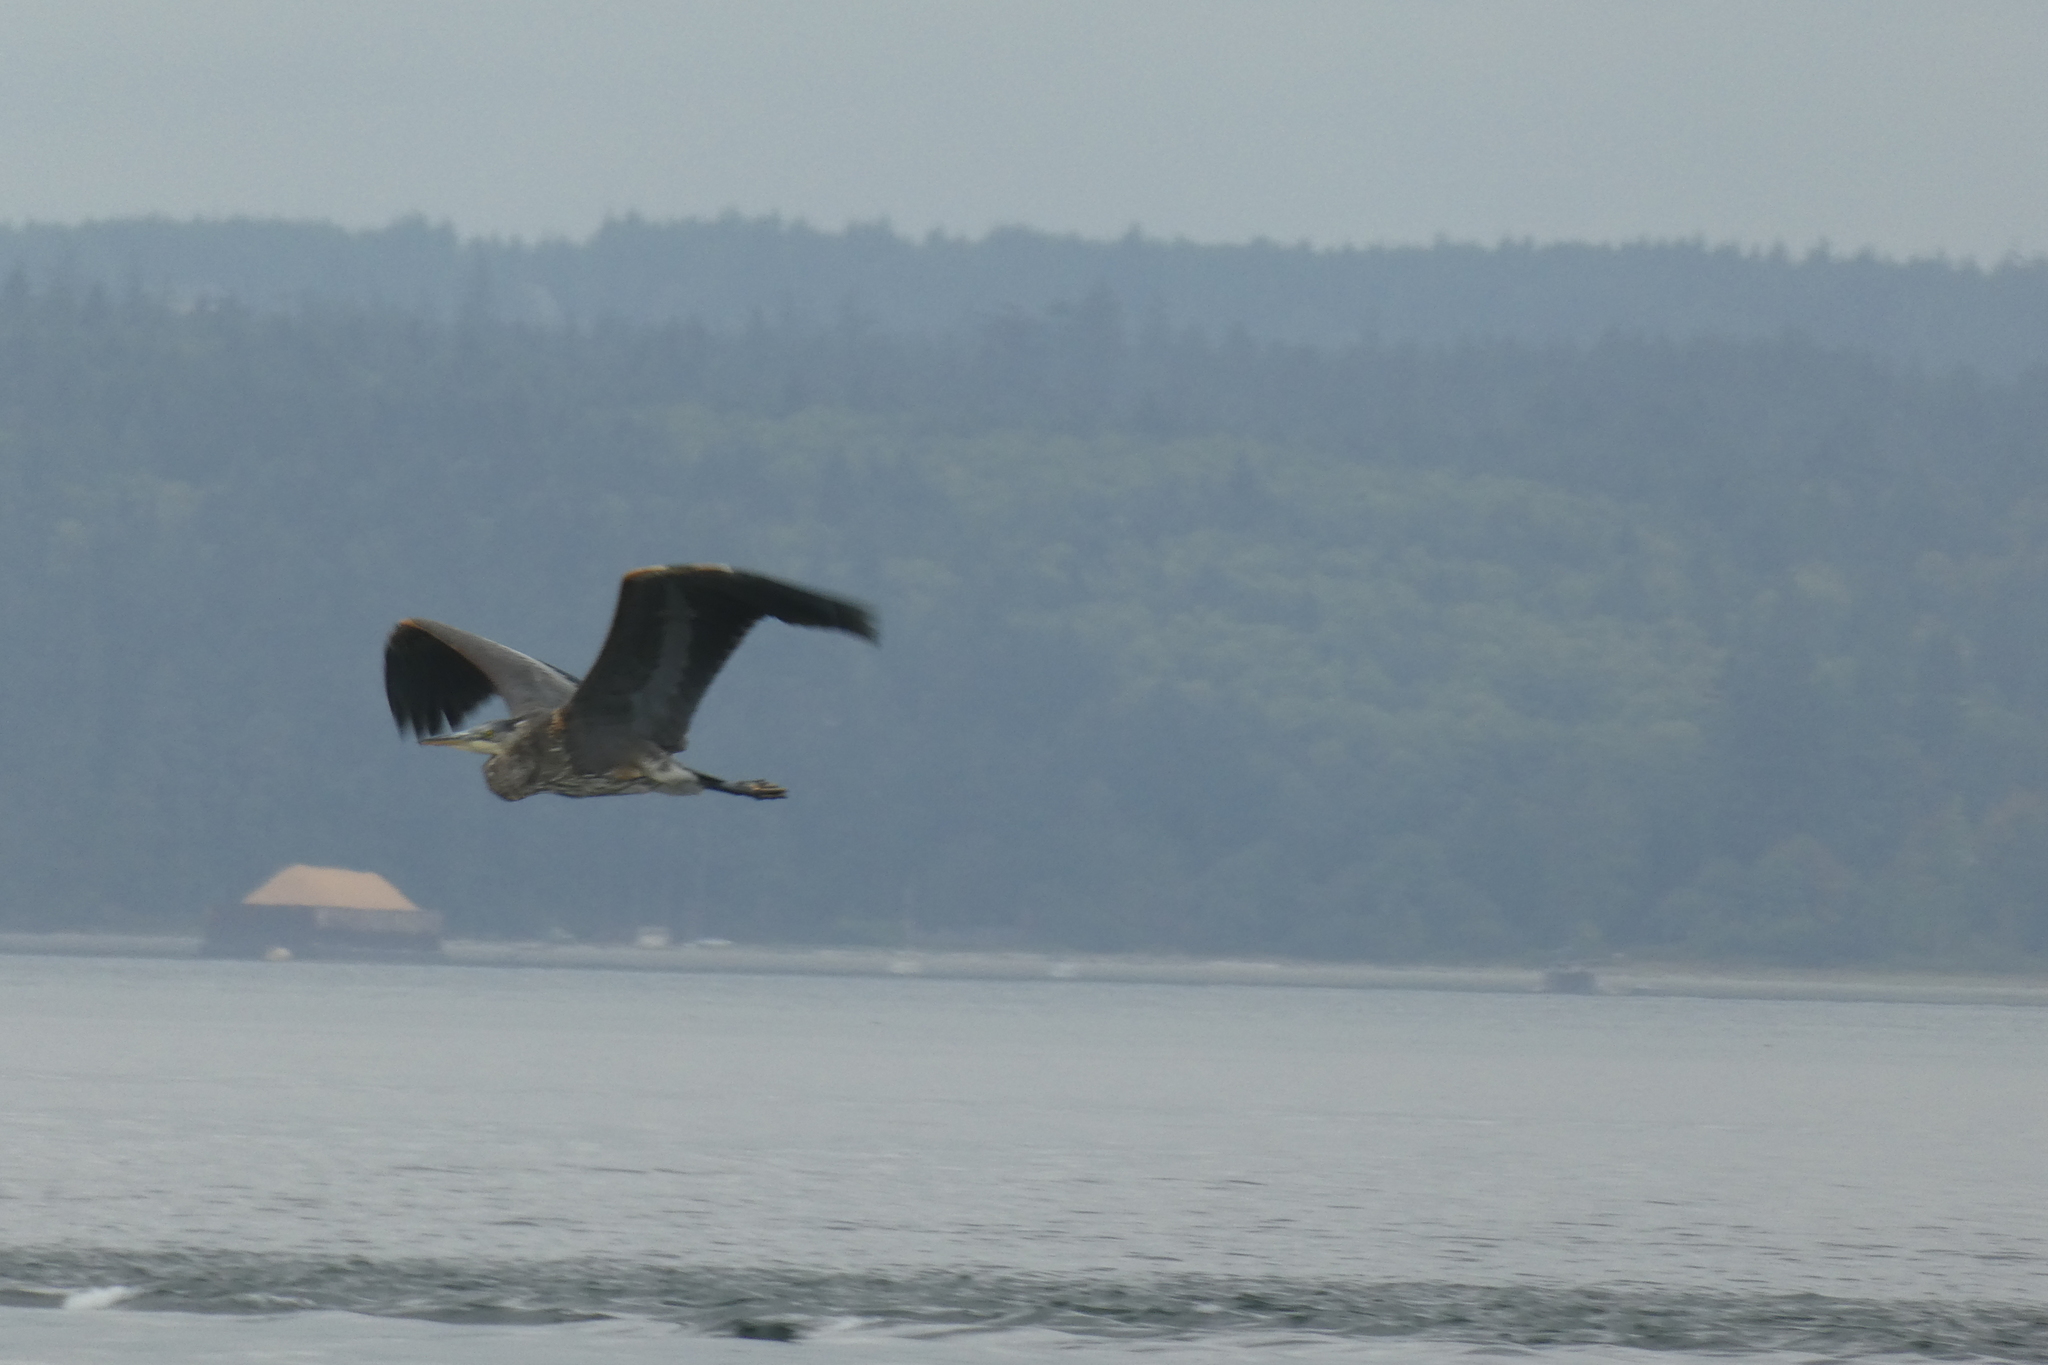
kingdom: Animalia
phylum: Chordata
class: Aves
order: Pelecaniformes
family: Ardeidae
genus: Ardea
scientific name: Ardea herodias
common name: Great blue heron
